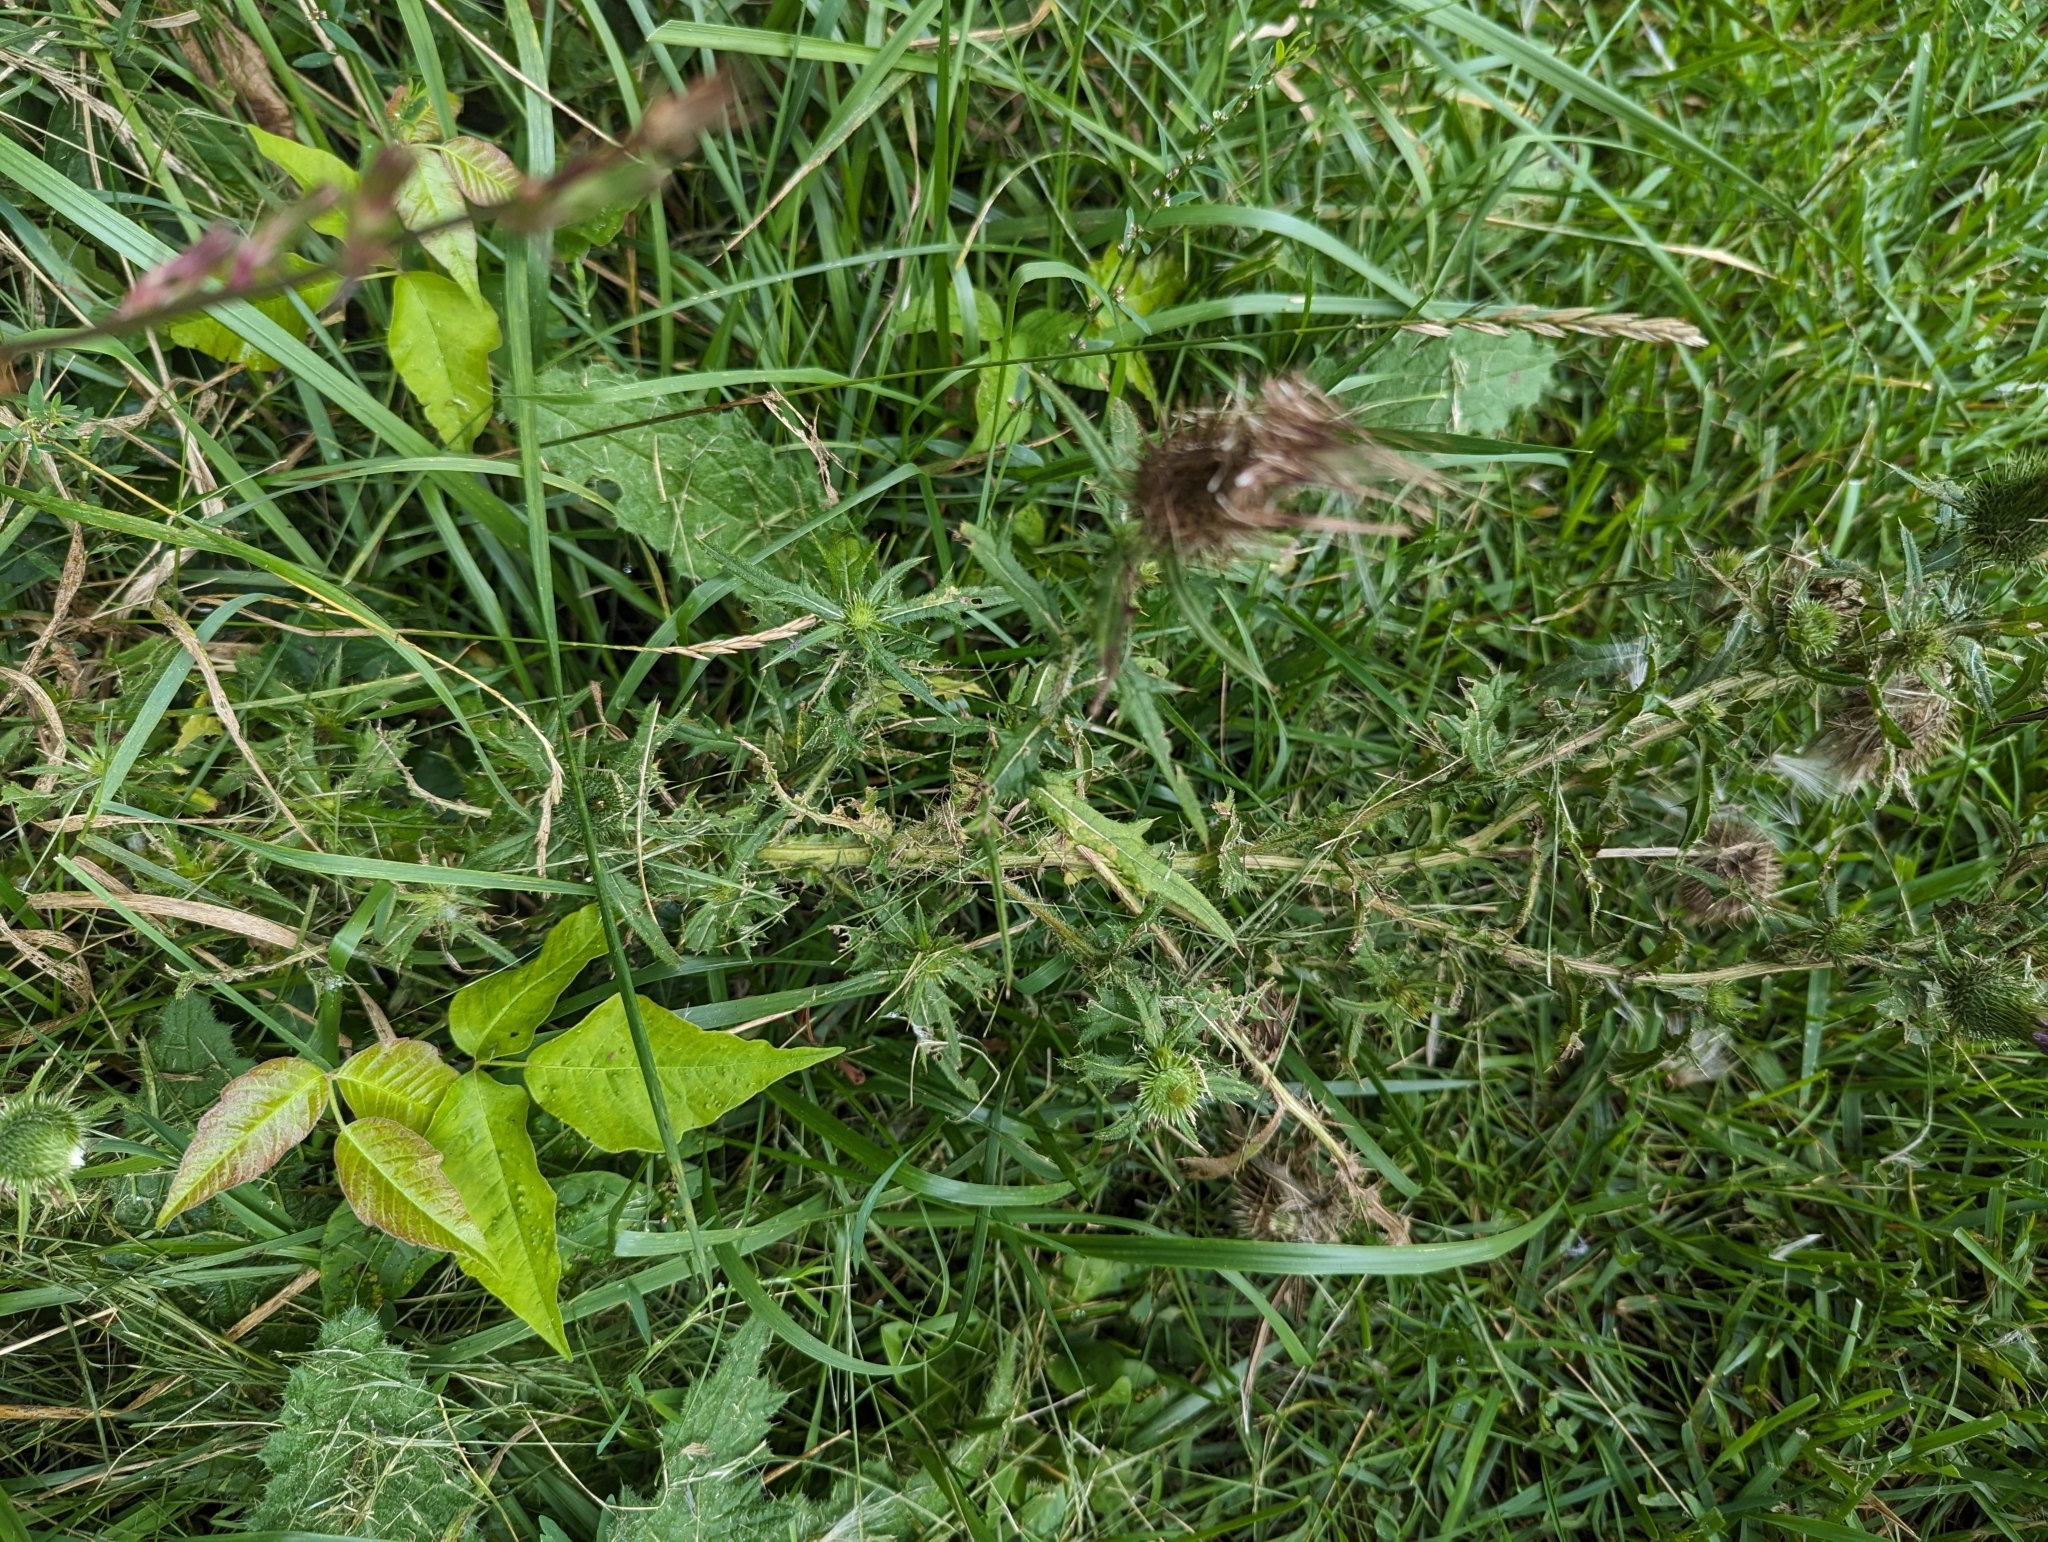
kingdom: Plantae
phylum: Tracheophyta
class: Magnoliopsida
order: Asterales
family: Asteraceae
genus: Cirsium
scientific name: Cirsium vulgare
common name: Bull thistle
